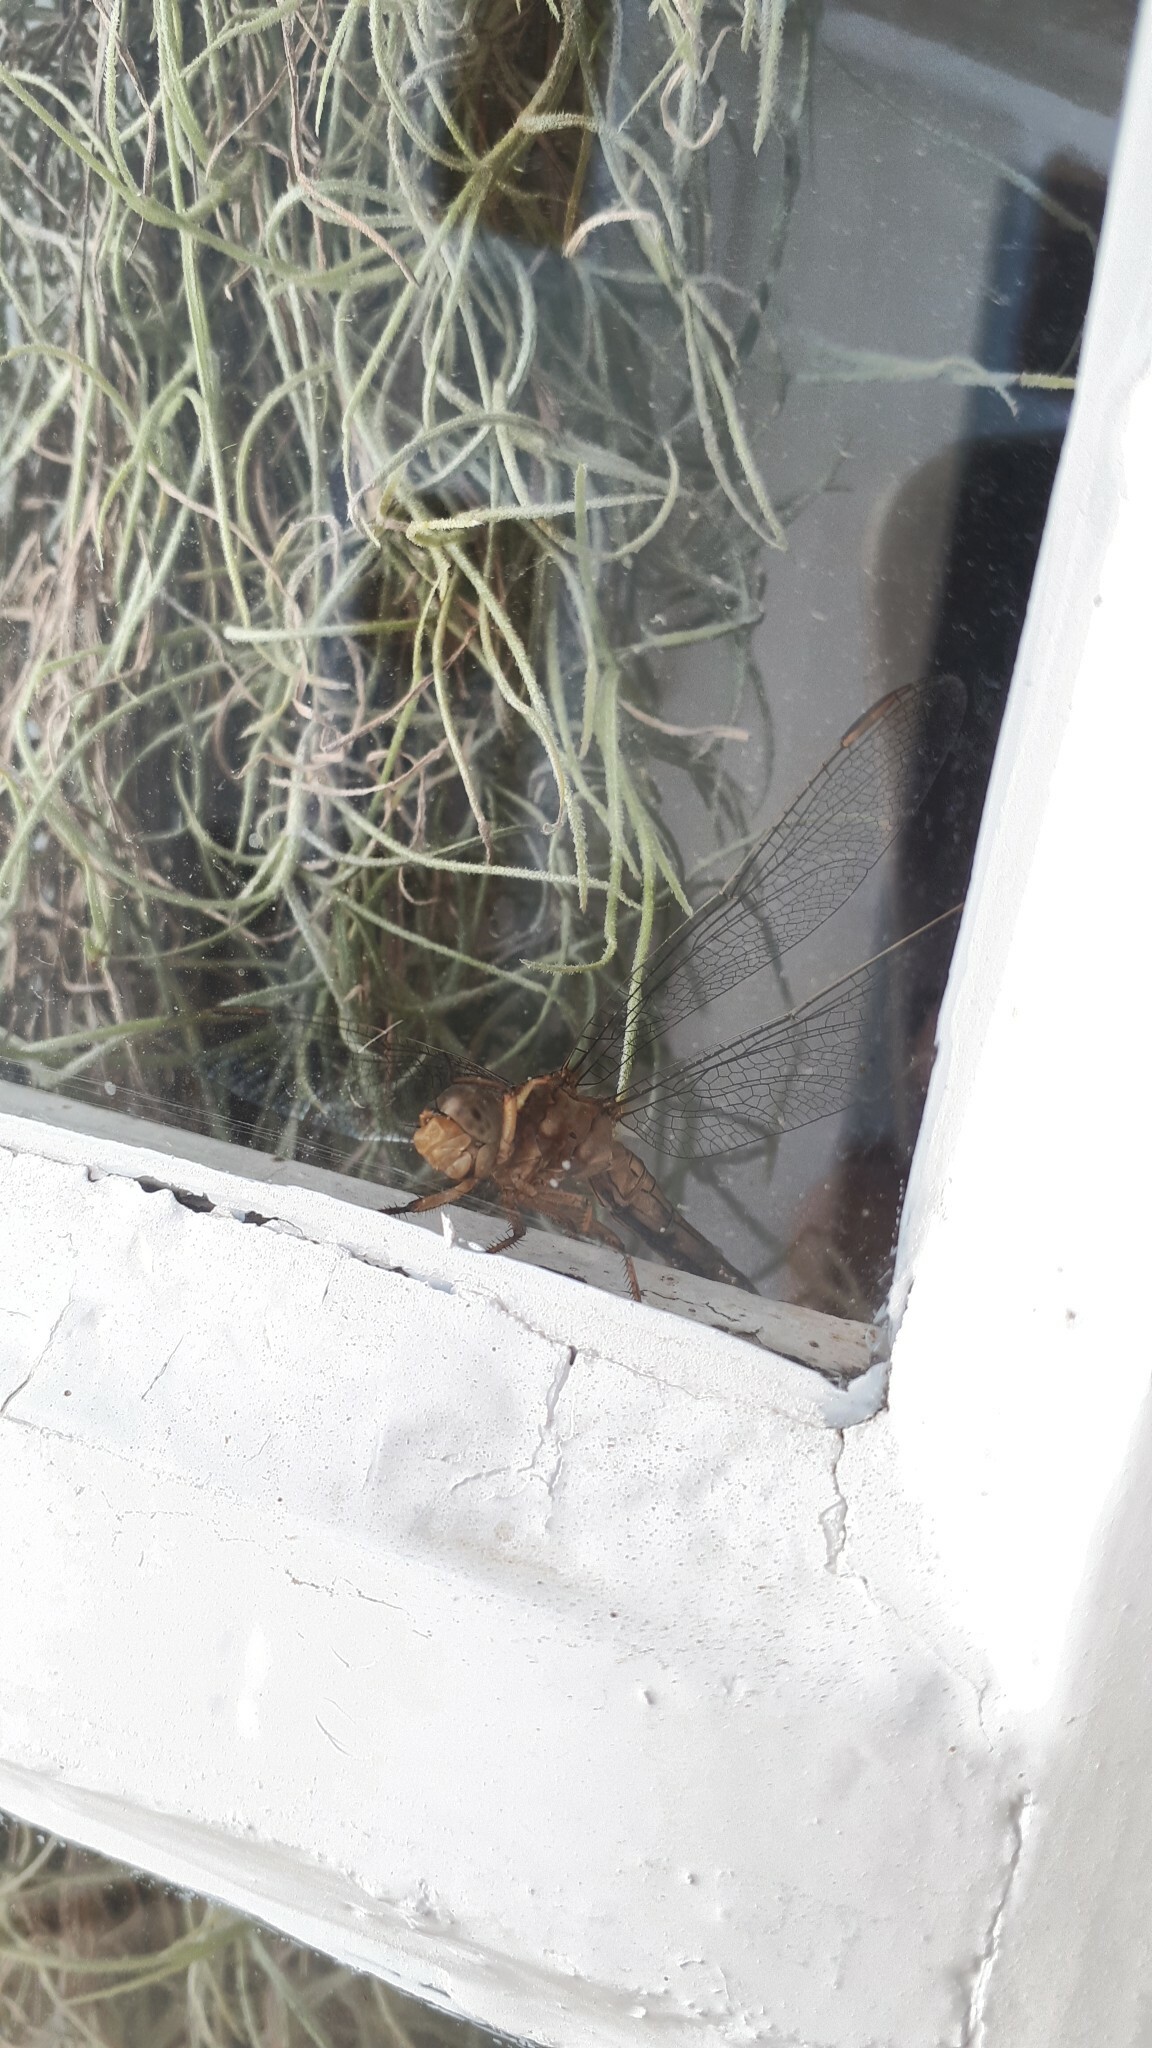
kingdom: Animalia
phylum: Arthropoda
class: Insecta
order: Odonata
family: Libellulidae
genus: Orthetrum
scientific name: Orthetrum coerulescens
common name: Keeled skimmer
